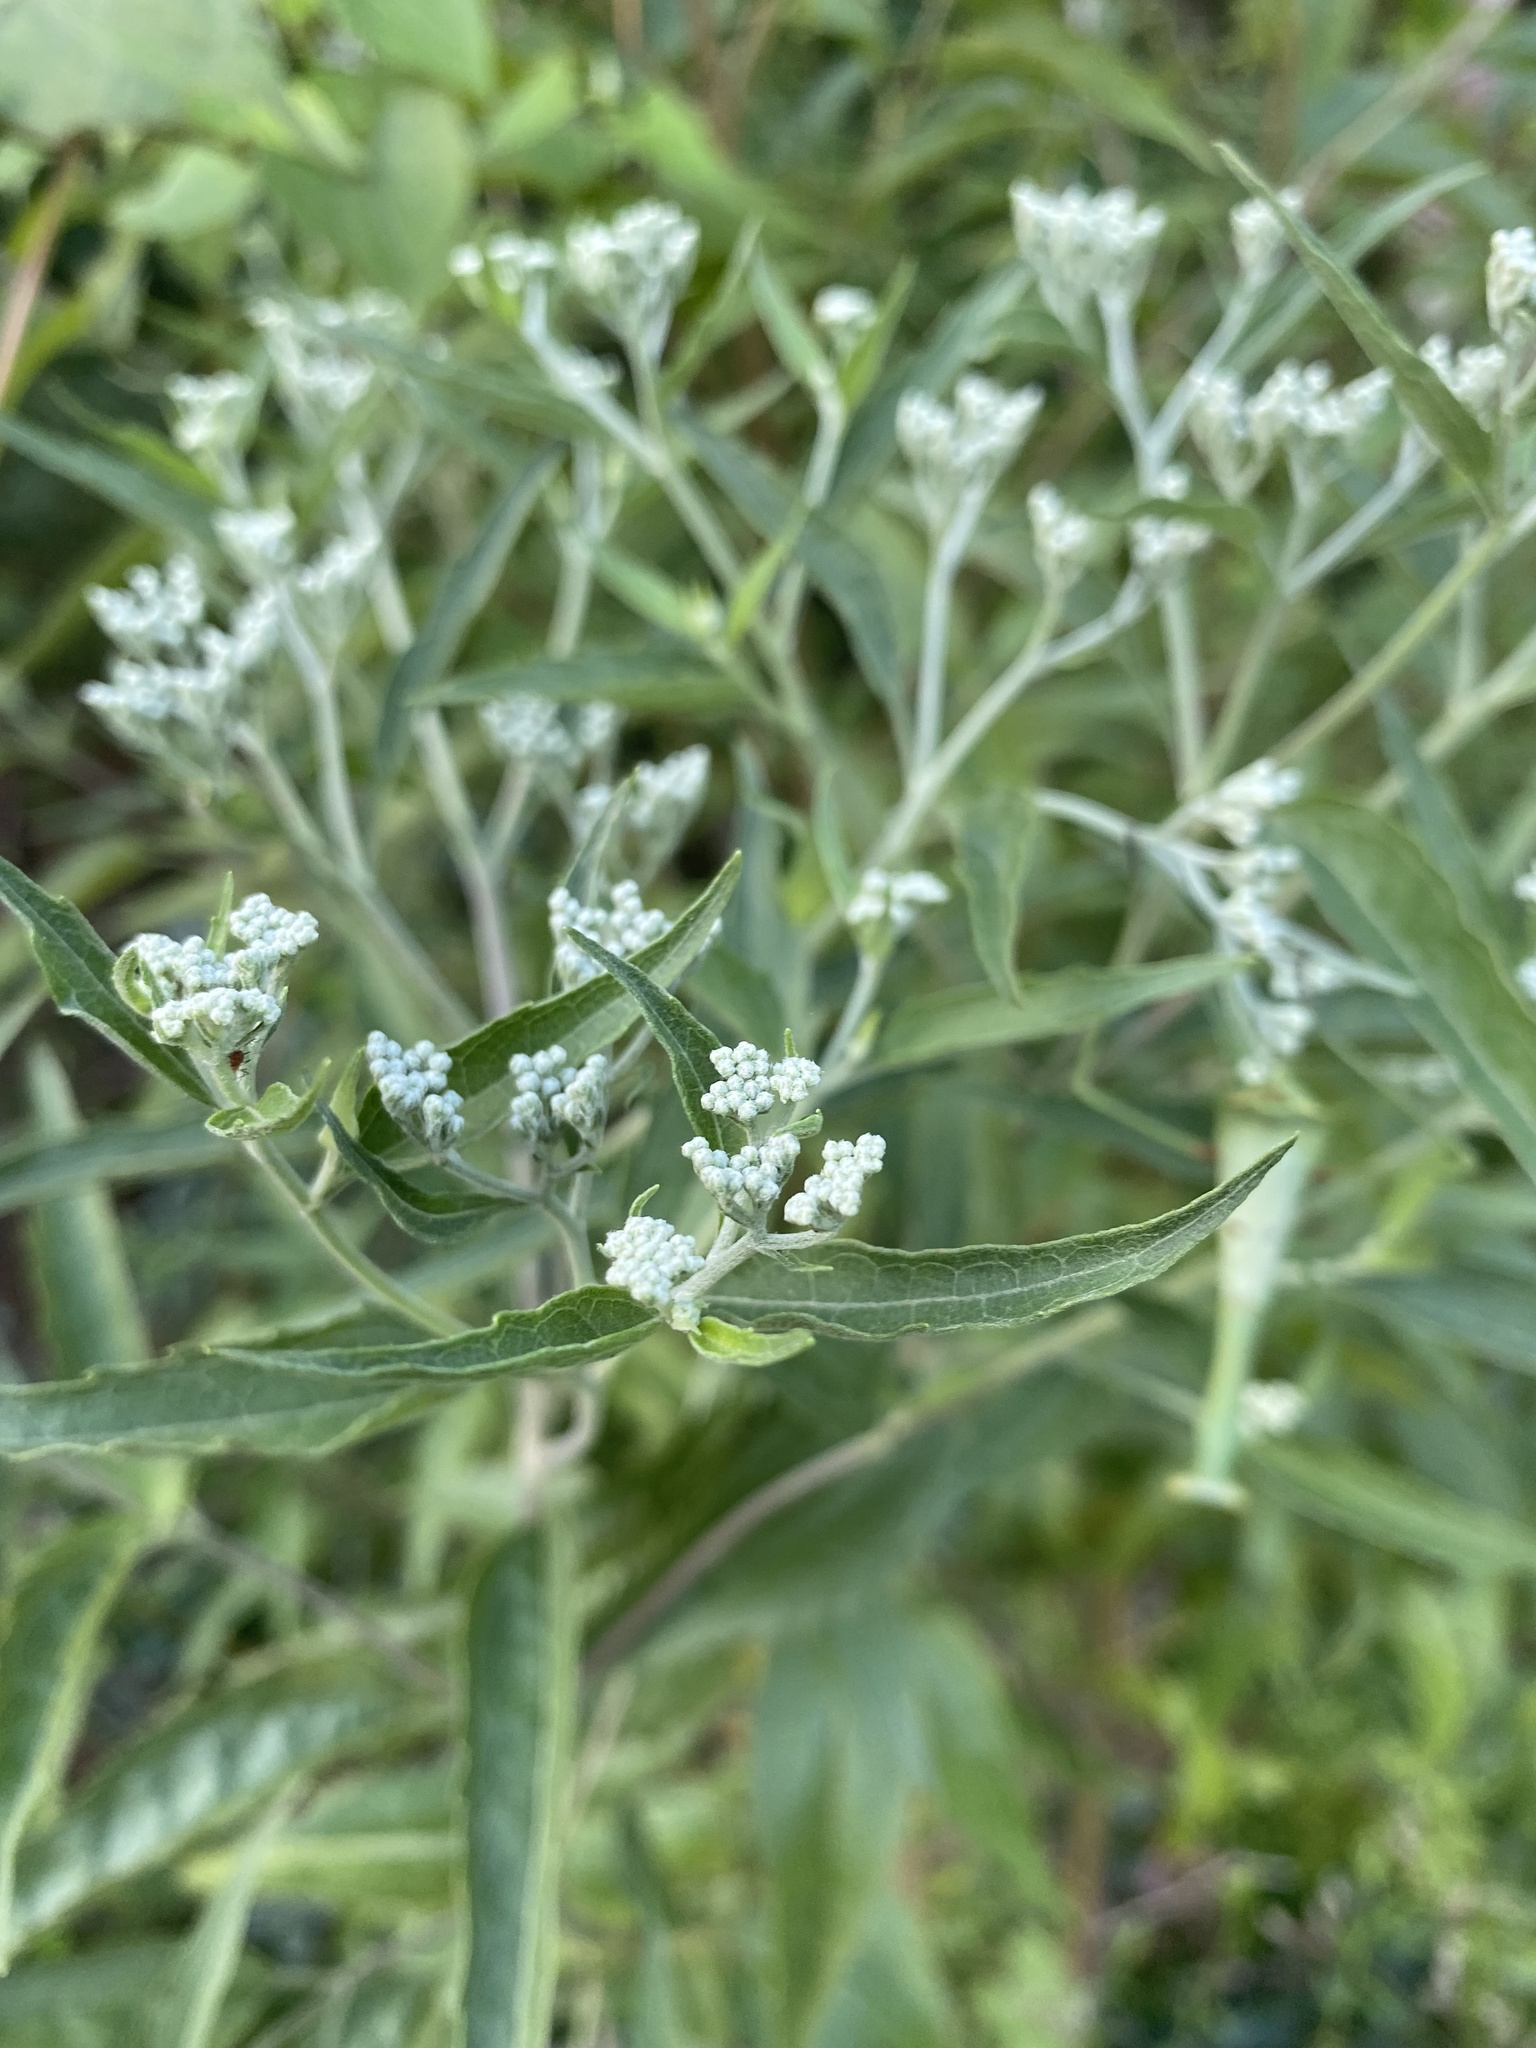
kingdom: Plantae
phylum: Tracheophyta
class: Magnoliopsida
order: Asterales
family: Asteraceae
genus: Eupatorium
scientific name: Eupatorium serotinum
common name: Late boneset
